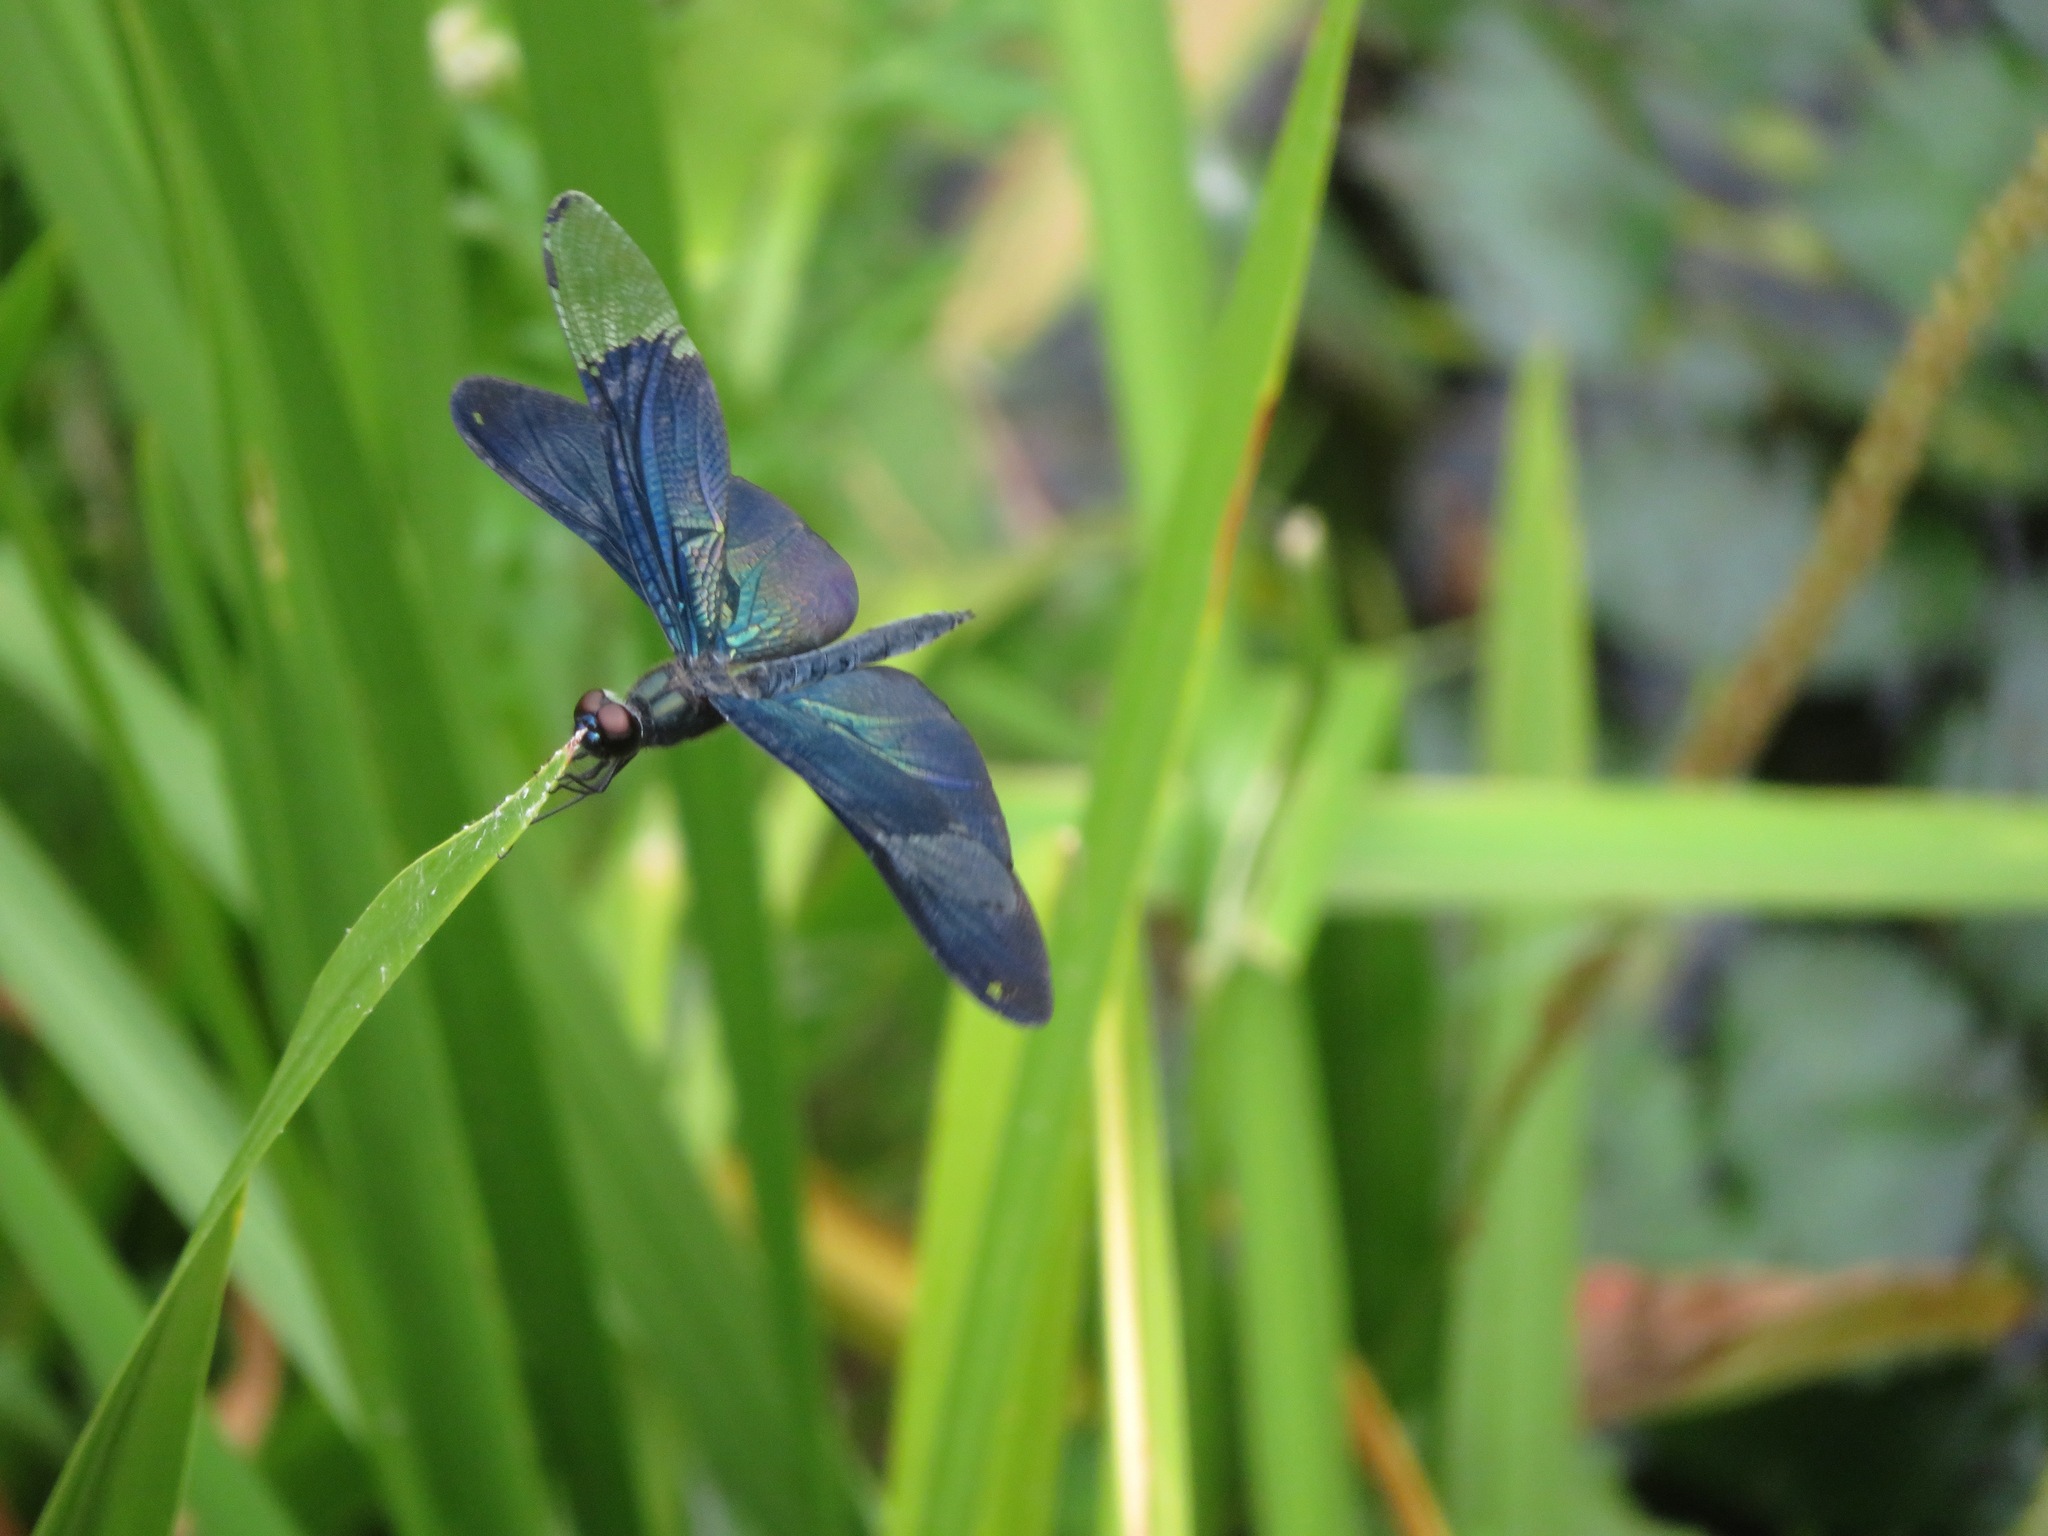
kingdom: Animalia
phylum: Arthropoda
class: Insecta
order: Odonata
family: Libellulidae
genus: Rhyothemis
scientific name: Rhyothemis fuliginosa
